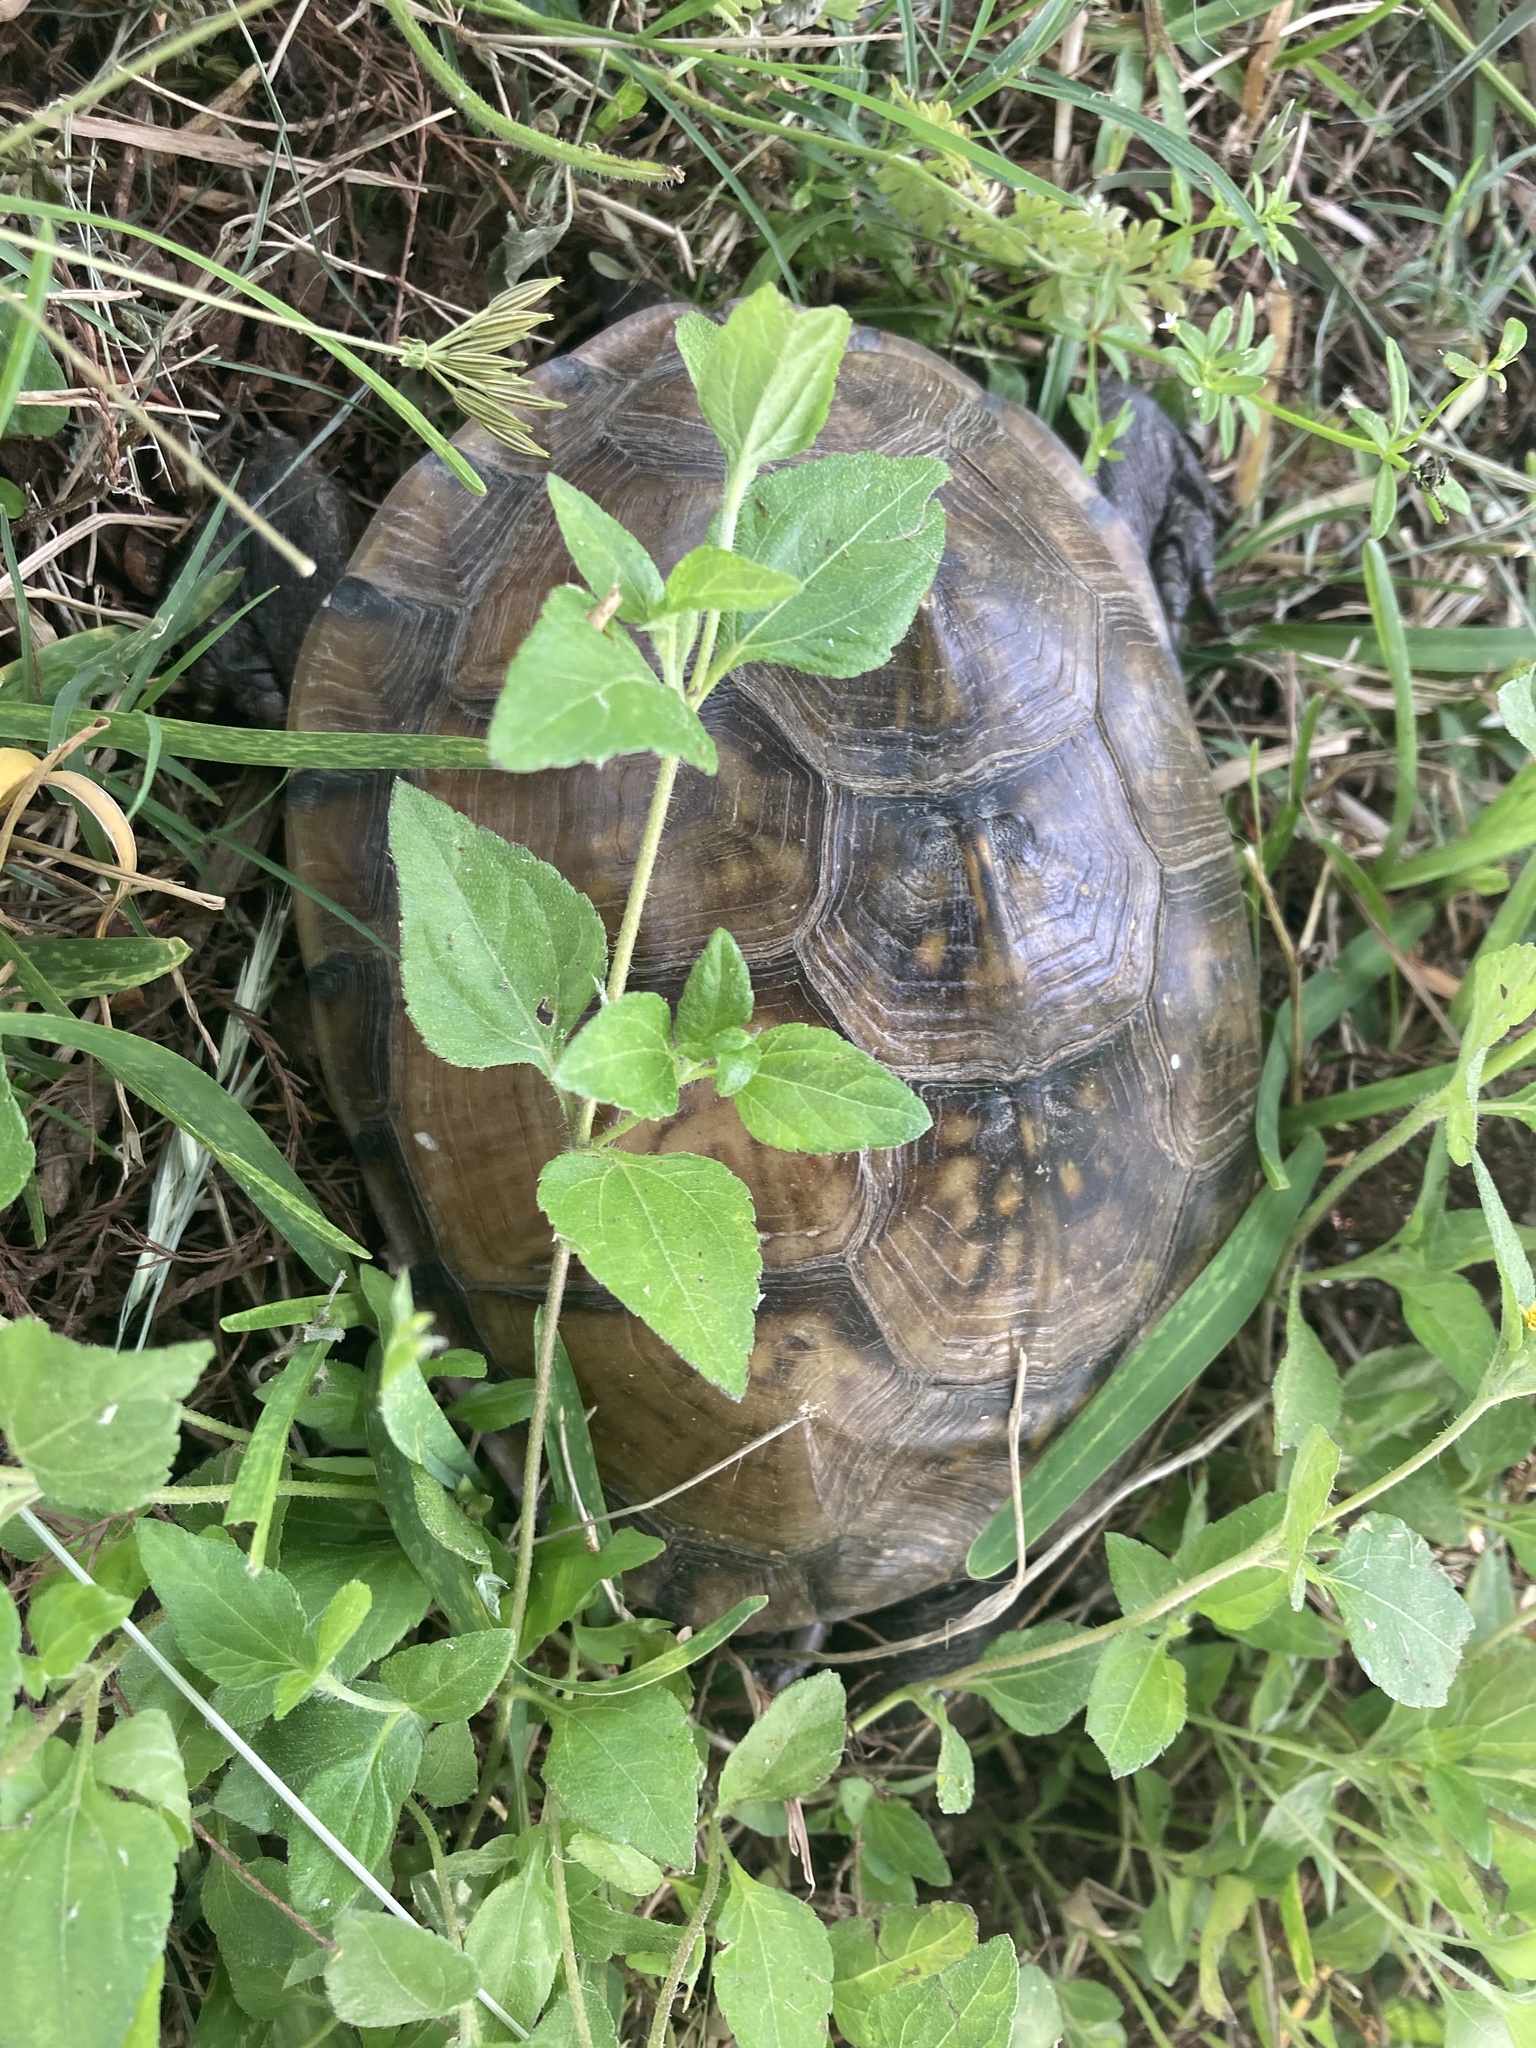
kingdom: Animalia
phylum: Chordata
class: Testudines
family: Emydidae
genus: Terrapene
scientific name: Terrapene carolina
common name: Common box turtle
